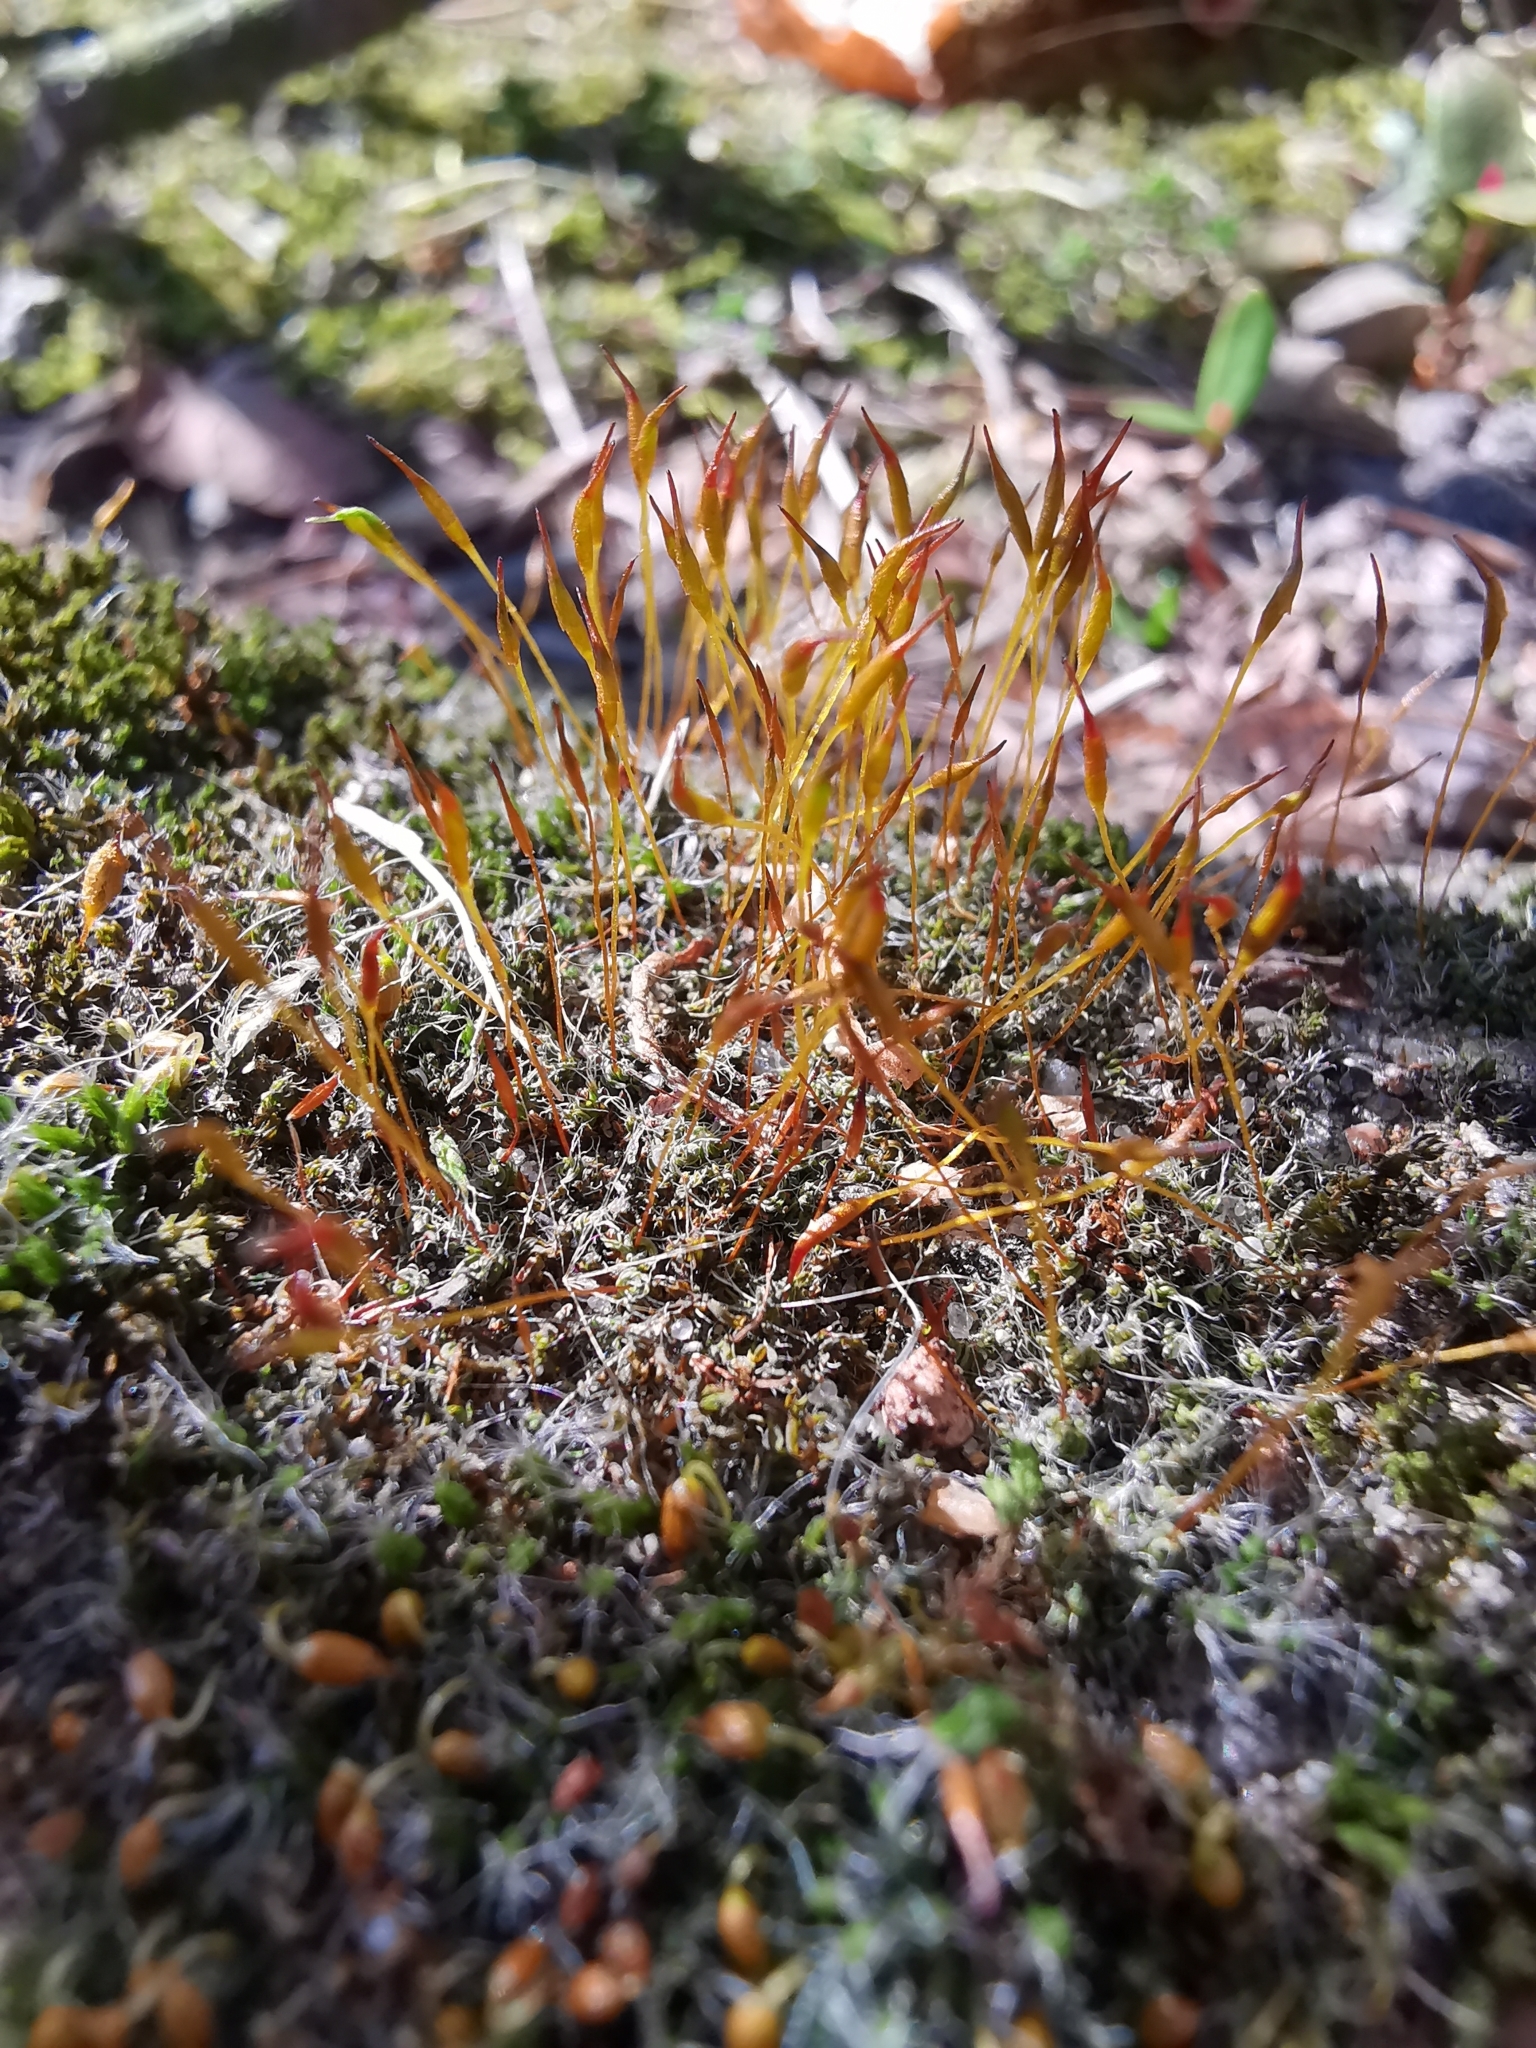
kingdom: Plantae
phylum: Bryophyta
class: Bryopsida
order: Pottiales
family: Pottiaceae
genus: Tortula
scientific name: Tortula muralis
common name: Wall screw-moss
